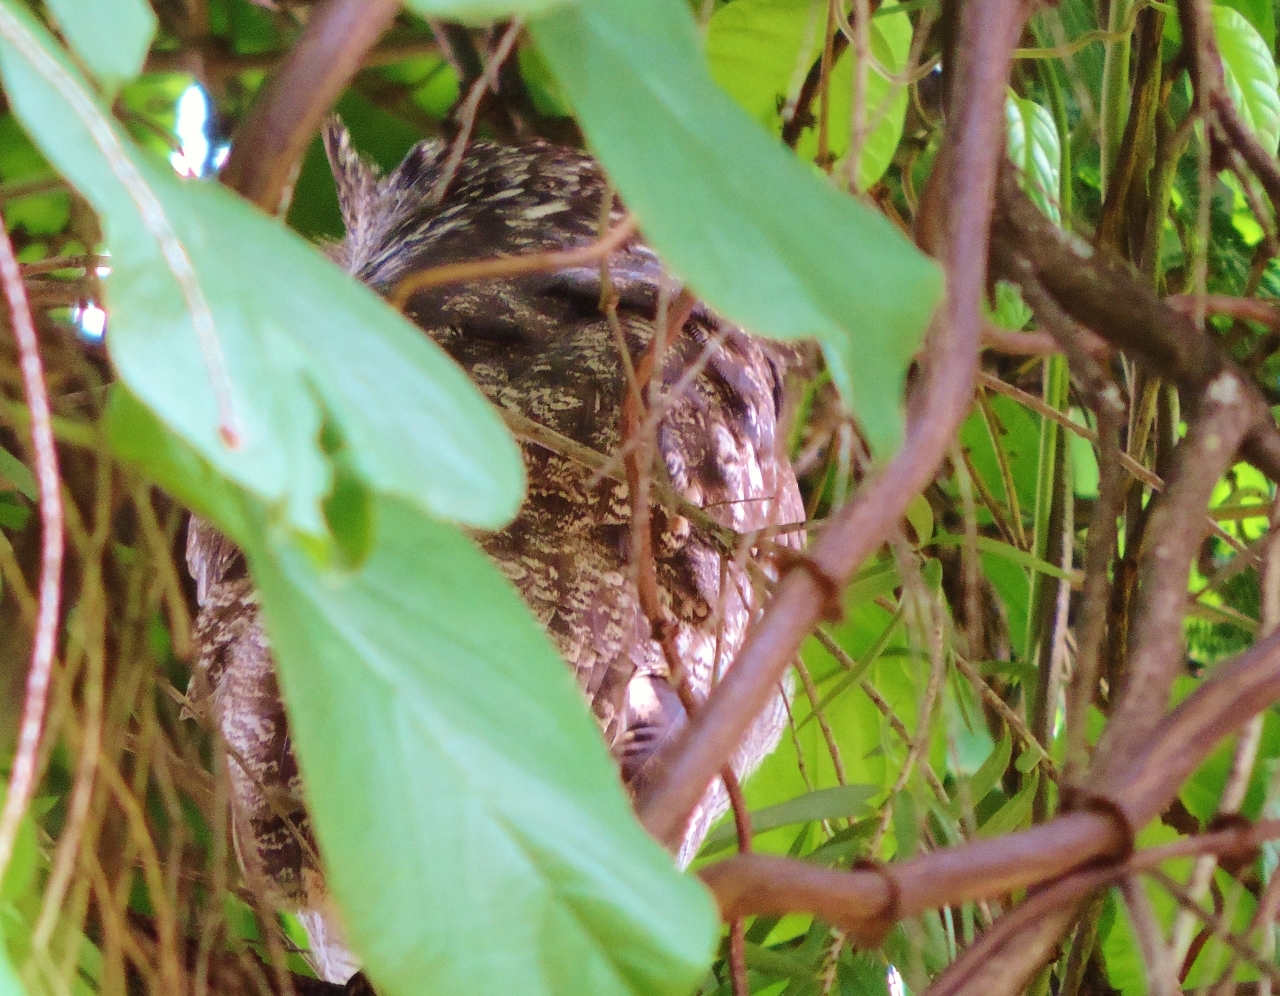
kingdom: Animalia
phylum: Chordata
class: Aves
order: Strigiformes
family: Strigidae
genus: Bubo
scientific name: Bubo africanus
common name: Spotted eagle-owl
